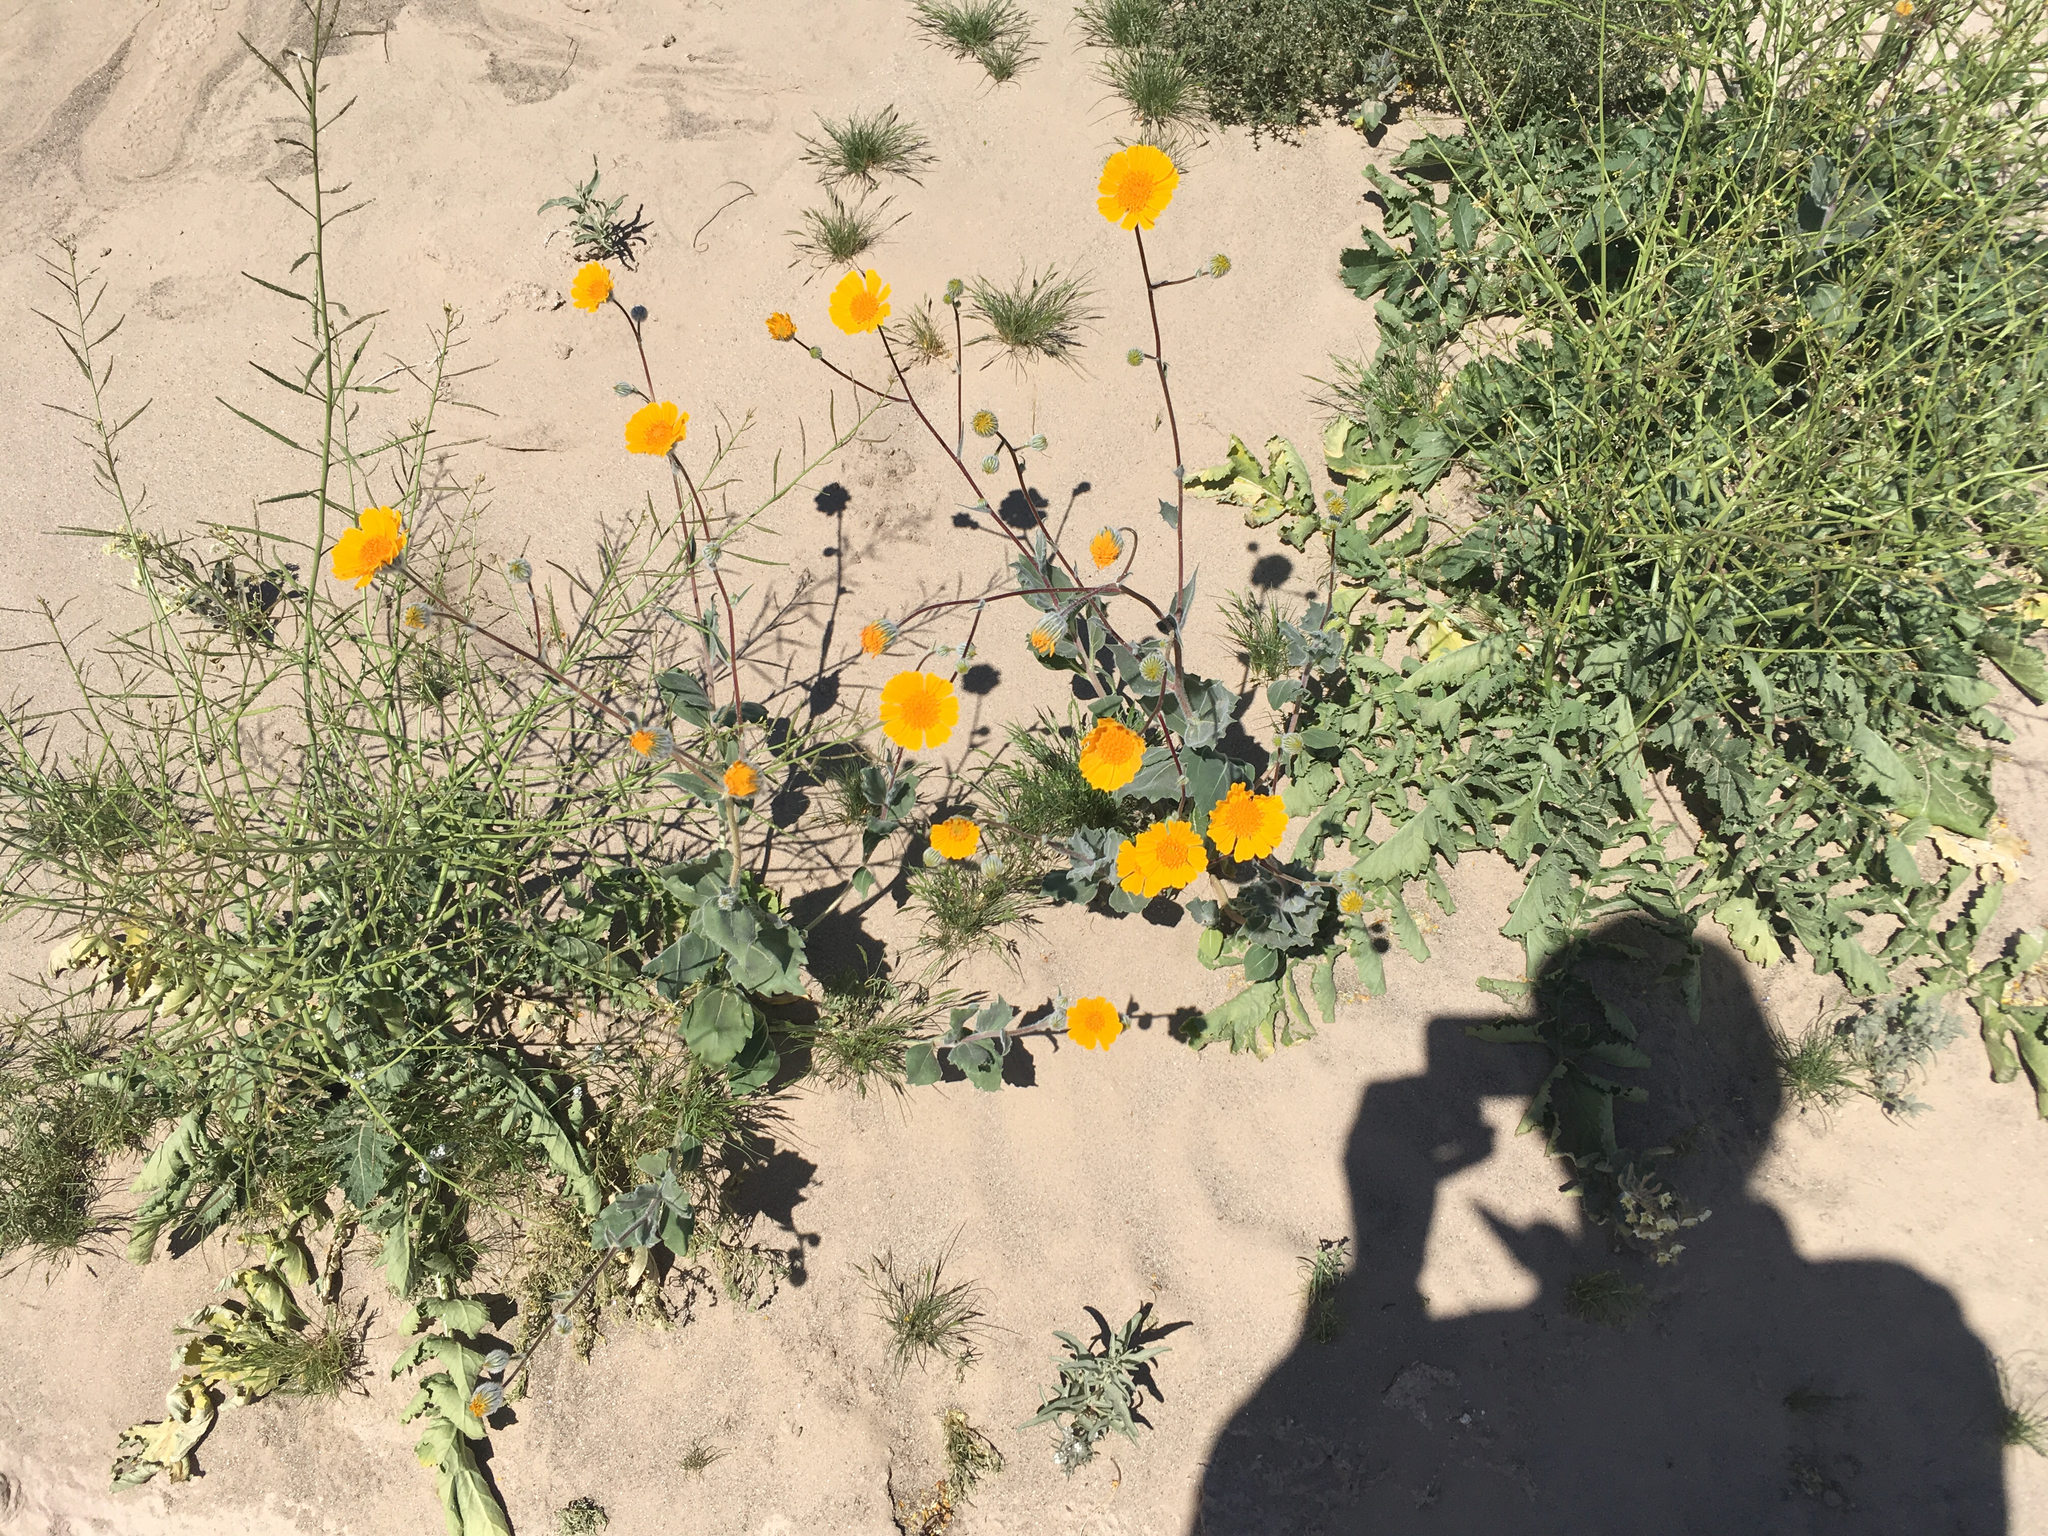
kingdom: Plantae
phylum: Tracheophyta
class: Magnoliopsida
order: Asterales
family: Asteraceae
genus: Geraea
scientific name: Geraea canescens
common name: Desert-gold
